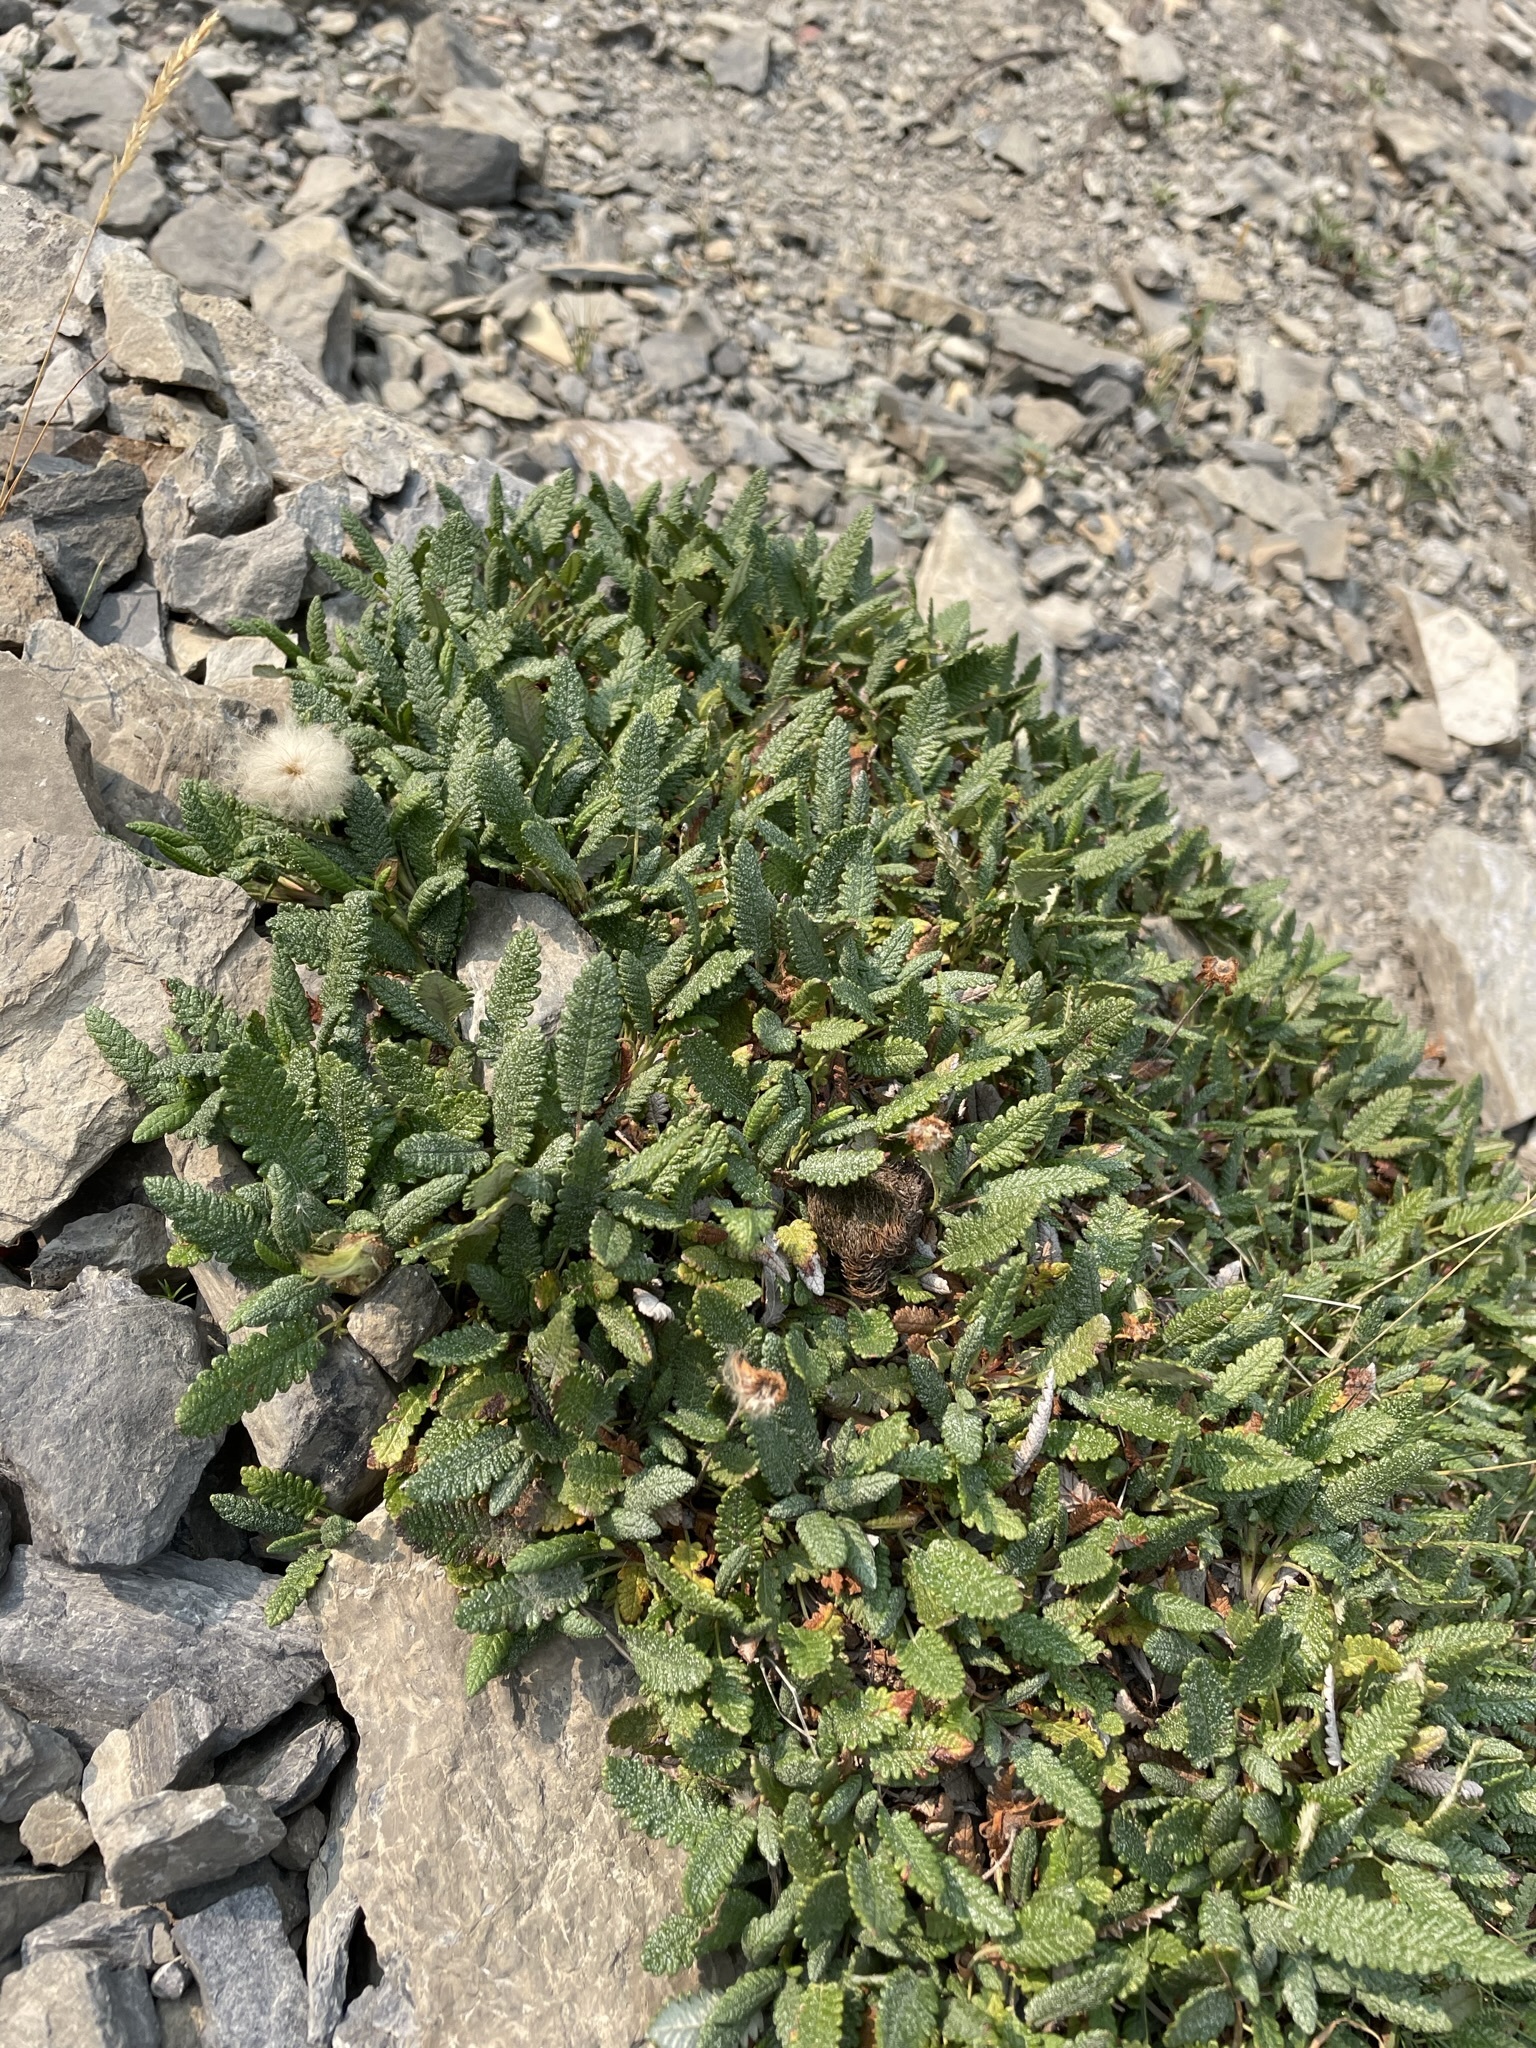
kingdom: Plantae
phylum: Tracheophyta
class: Magnoliopsida
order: Rosales
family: Rosaceae
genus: Dryas
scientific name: Dryas octopetala
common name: Eight-petal mountain-avens
